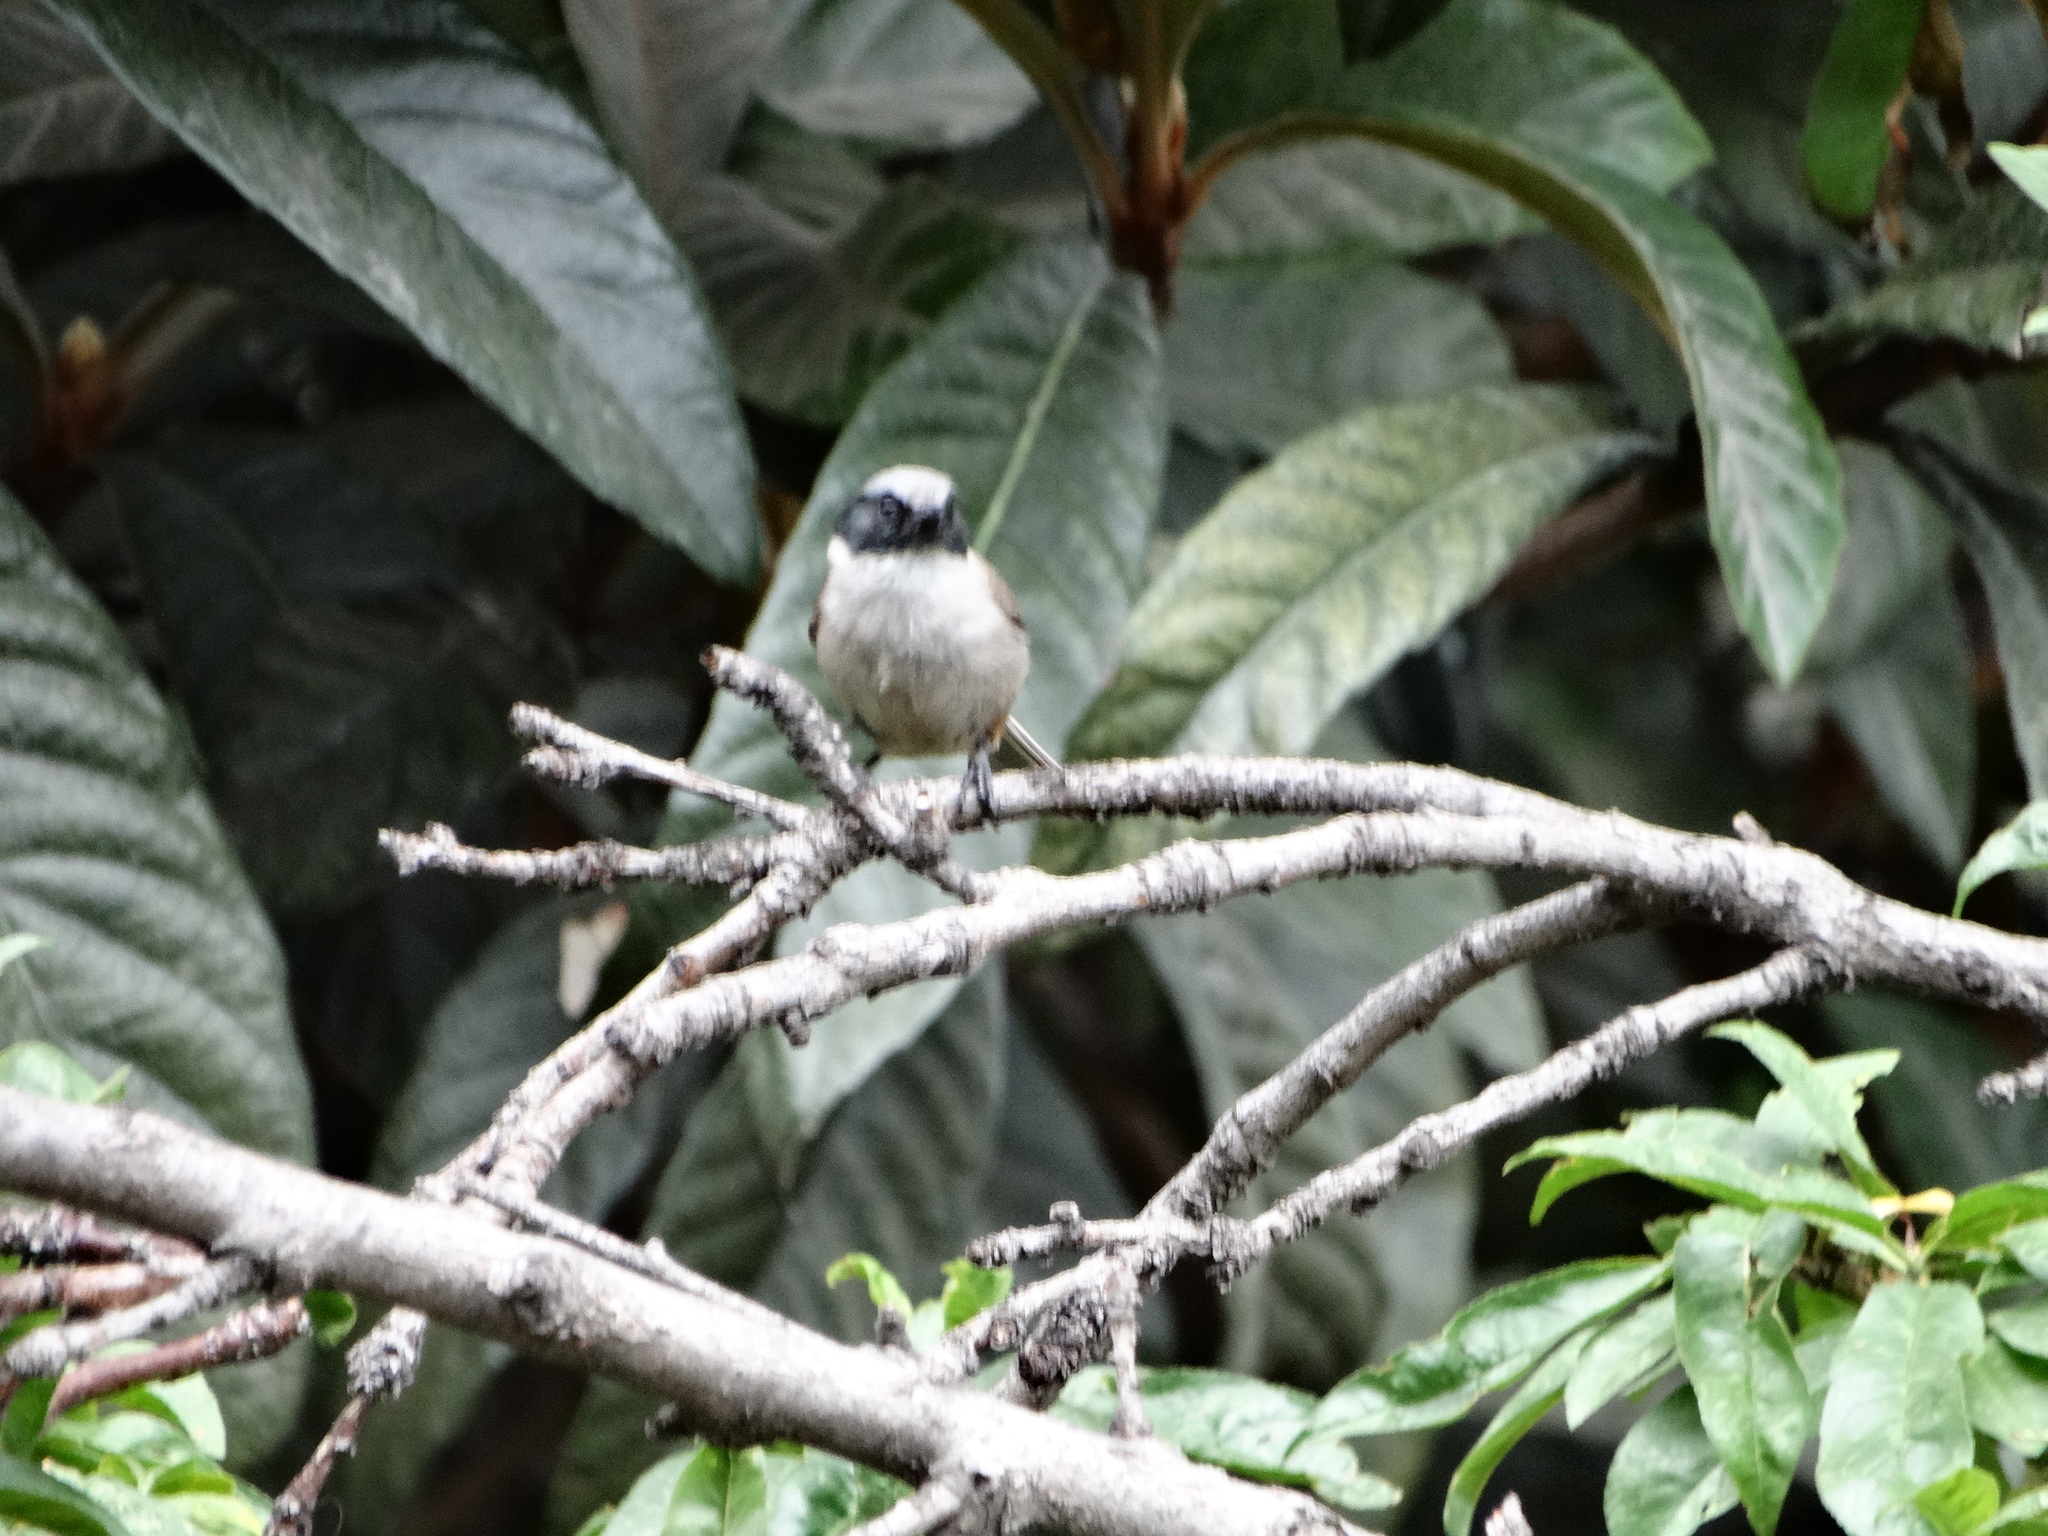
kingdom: Animalia
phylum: Chordata
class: Aves
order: Passeriformes
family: Aegithalidae
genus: Psaltriparus
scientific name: Psaltriparus minimus
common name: American bushtit
